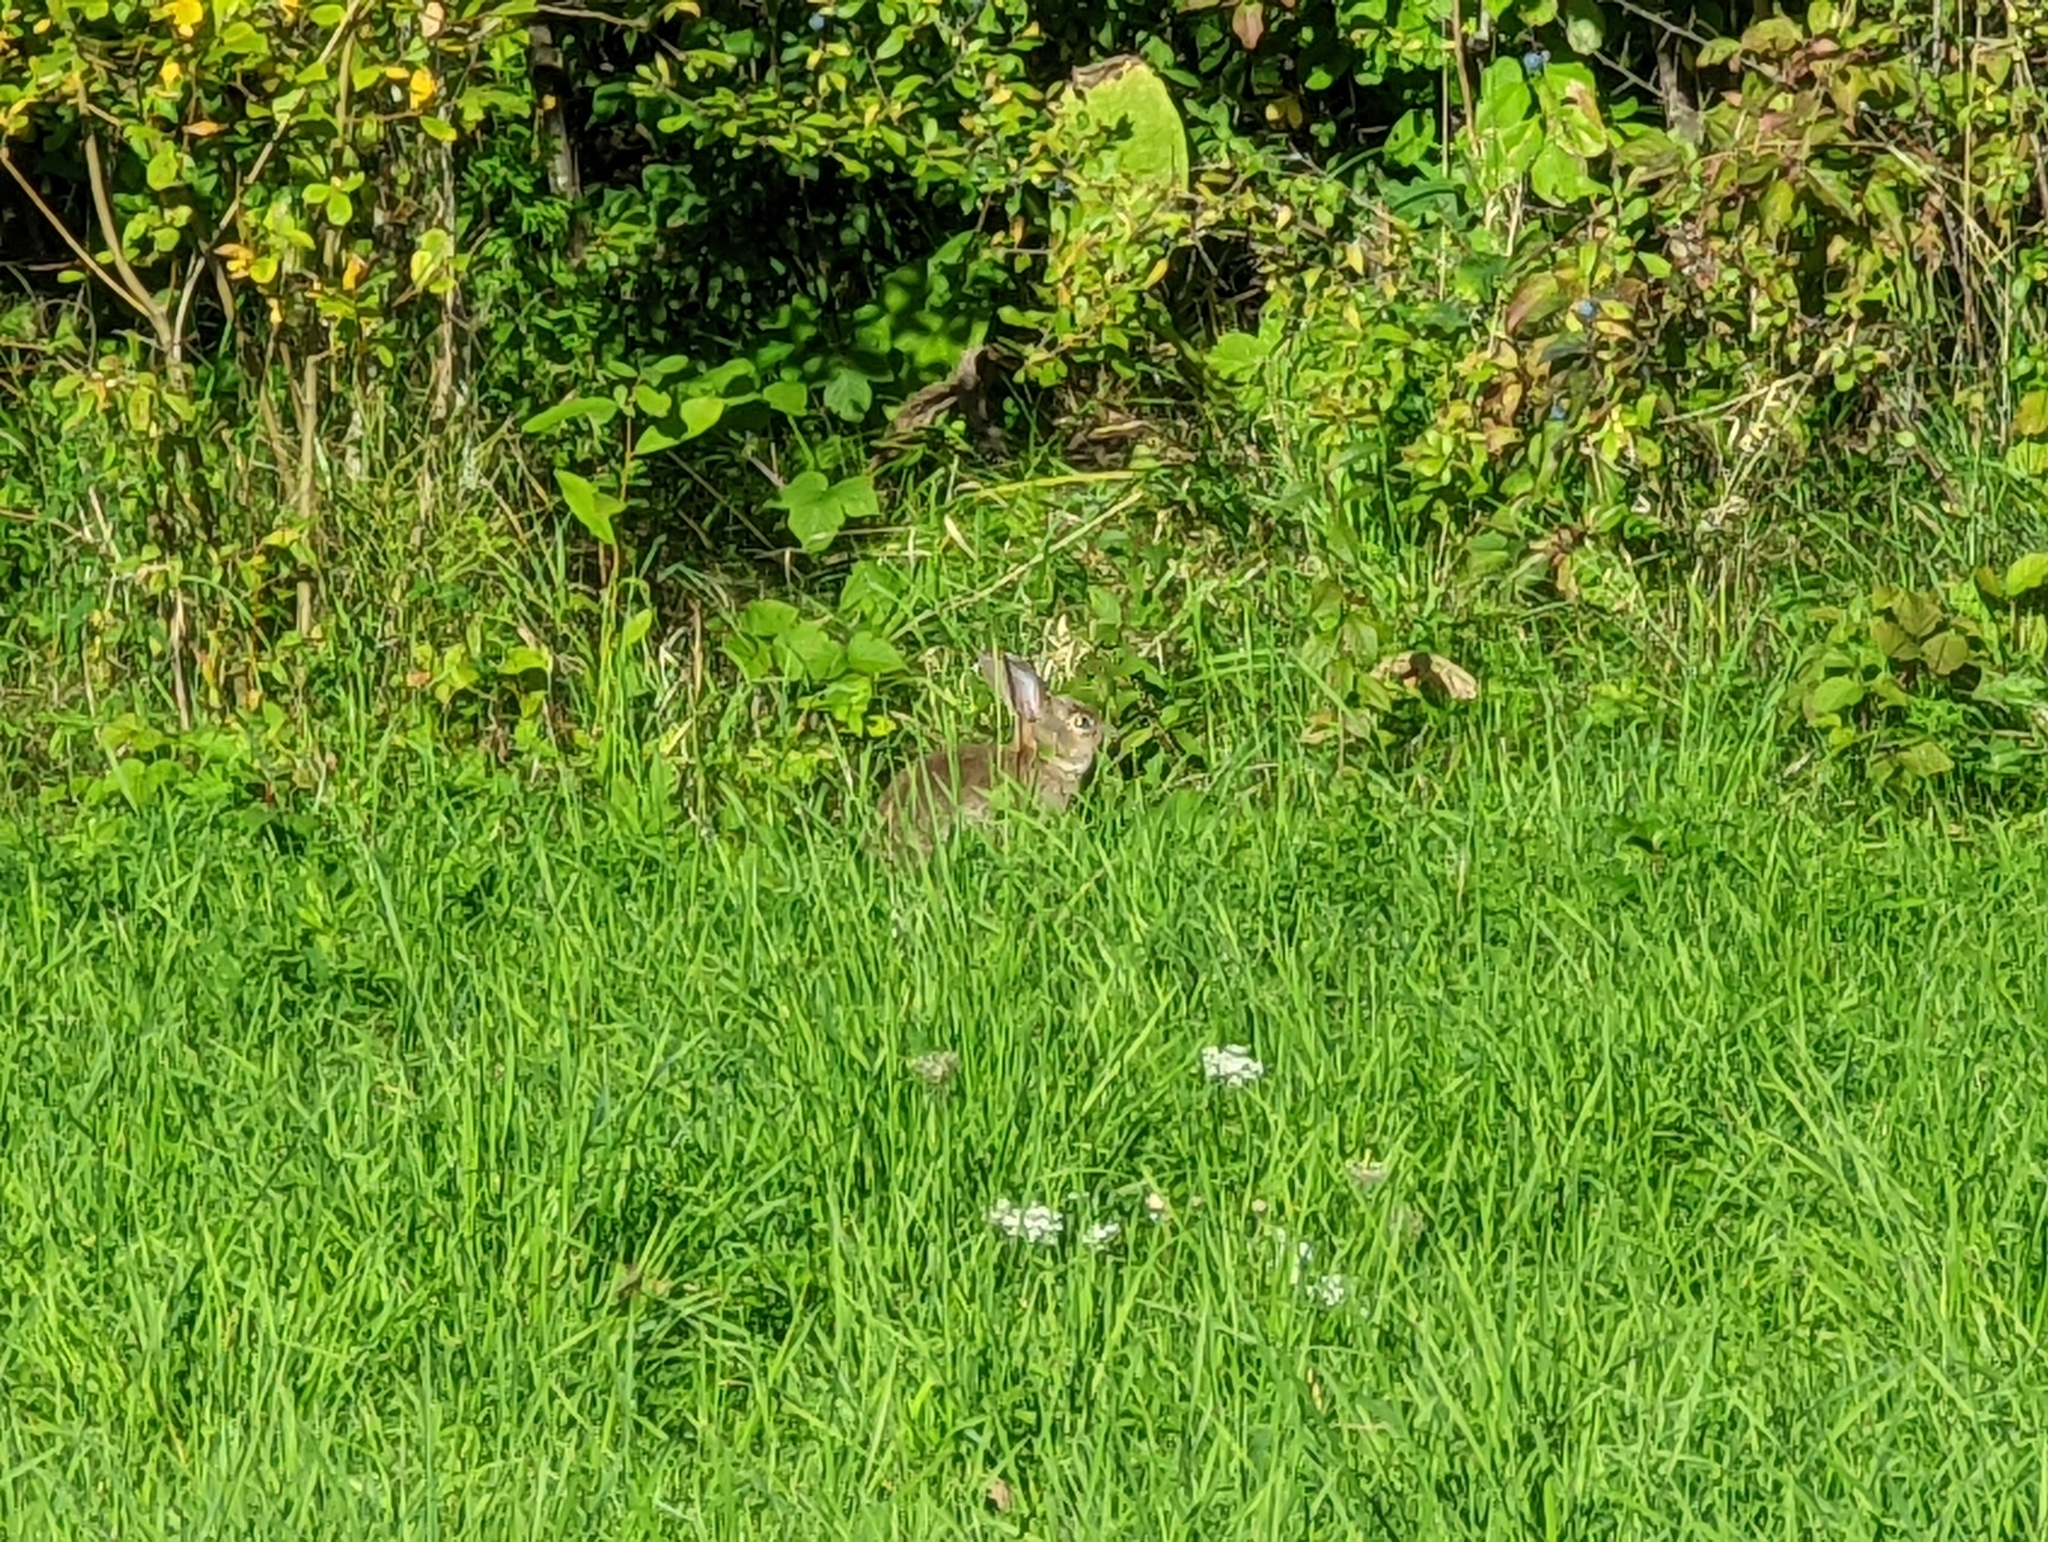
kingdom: Animalia
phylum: Chordata
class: Mammalia
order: Lagomorpha
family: Leporidae
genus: Oryctolagus
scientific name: Oryctolagus cuniculus
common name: European rabbit
